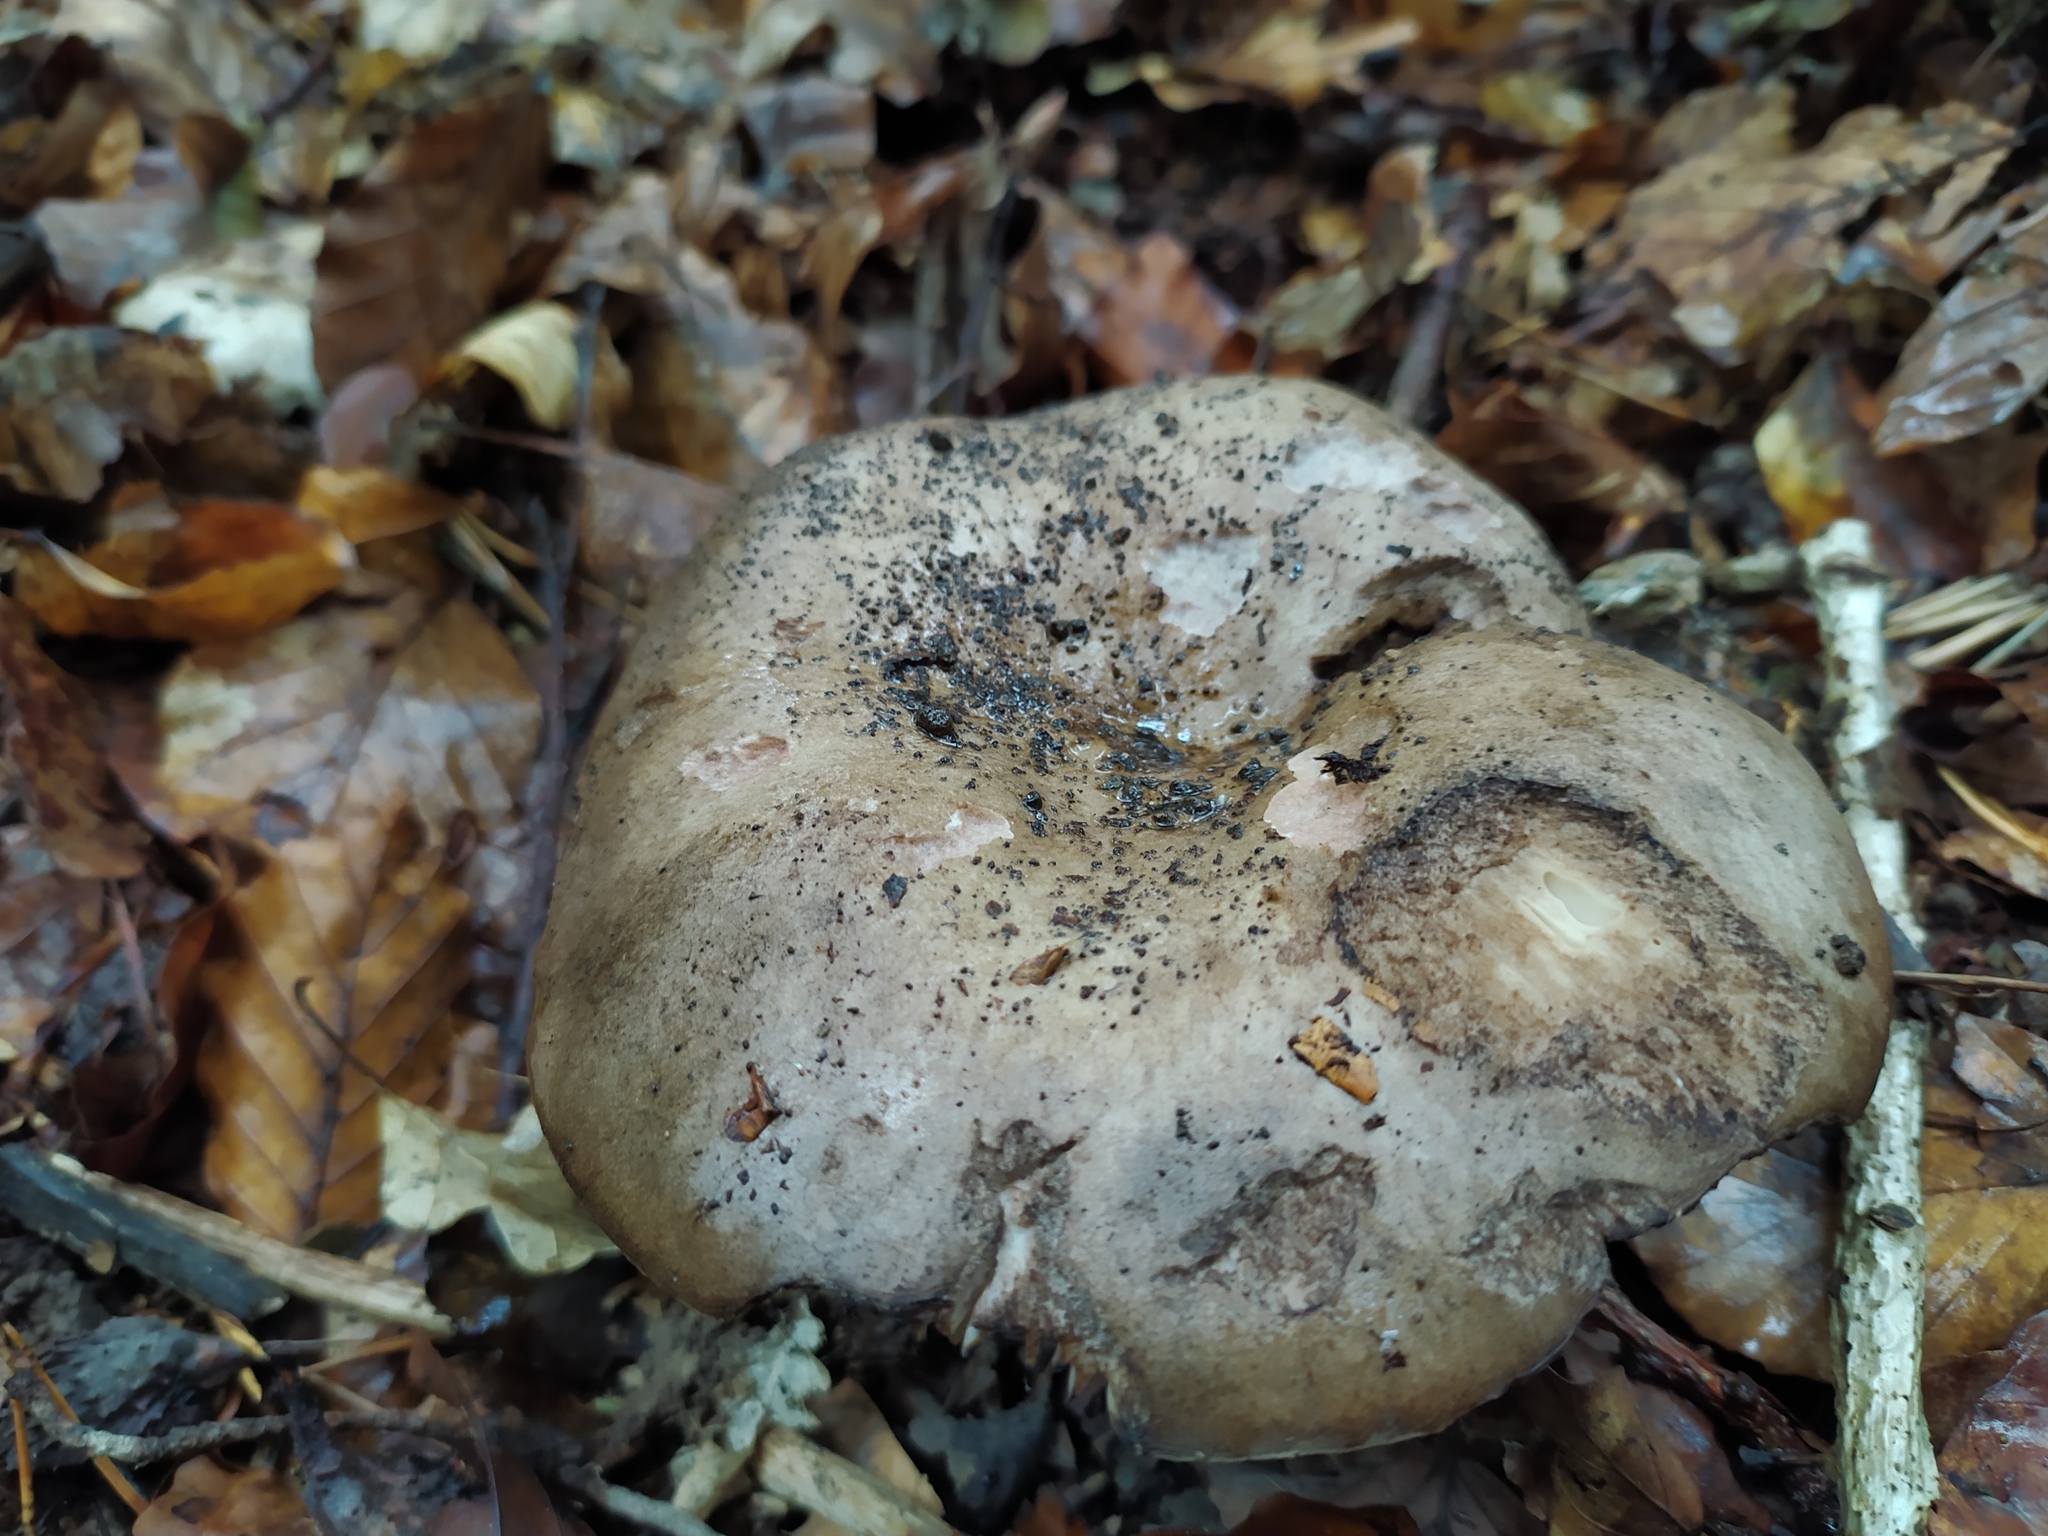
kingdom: Fungi
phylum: Basidiomycota
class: Agaricomycetes
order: Russulales
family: Russulaceae
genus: Russula
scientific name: Russula adusta
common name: Winecork brittlegill
